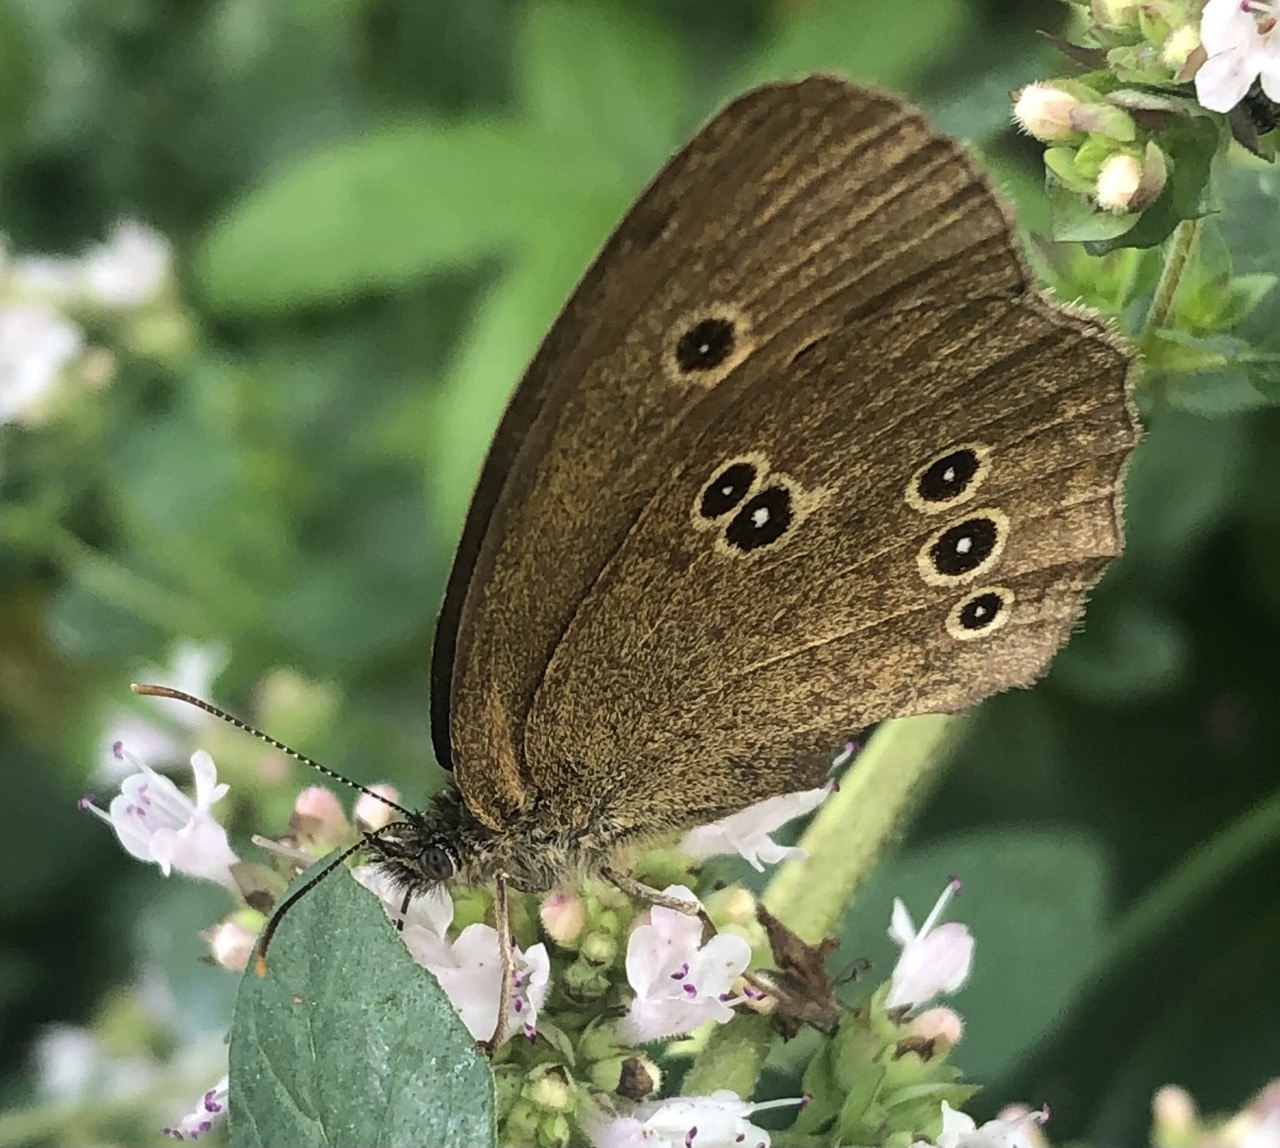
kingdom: Animalia
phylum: Arthropoda
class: Insecta
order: Lepidoptera
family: Nymphalidae
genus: Aphantopus
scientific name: Aphantopus hyperantus
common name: Ringlet
